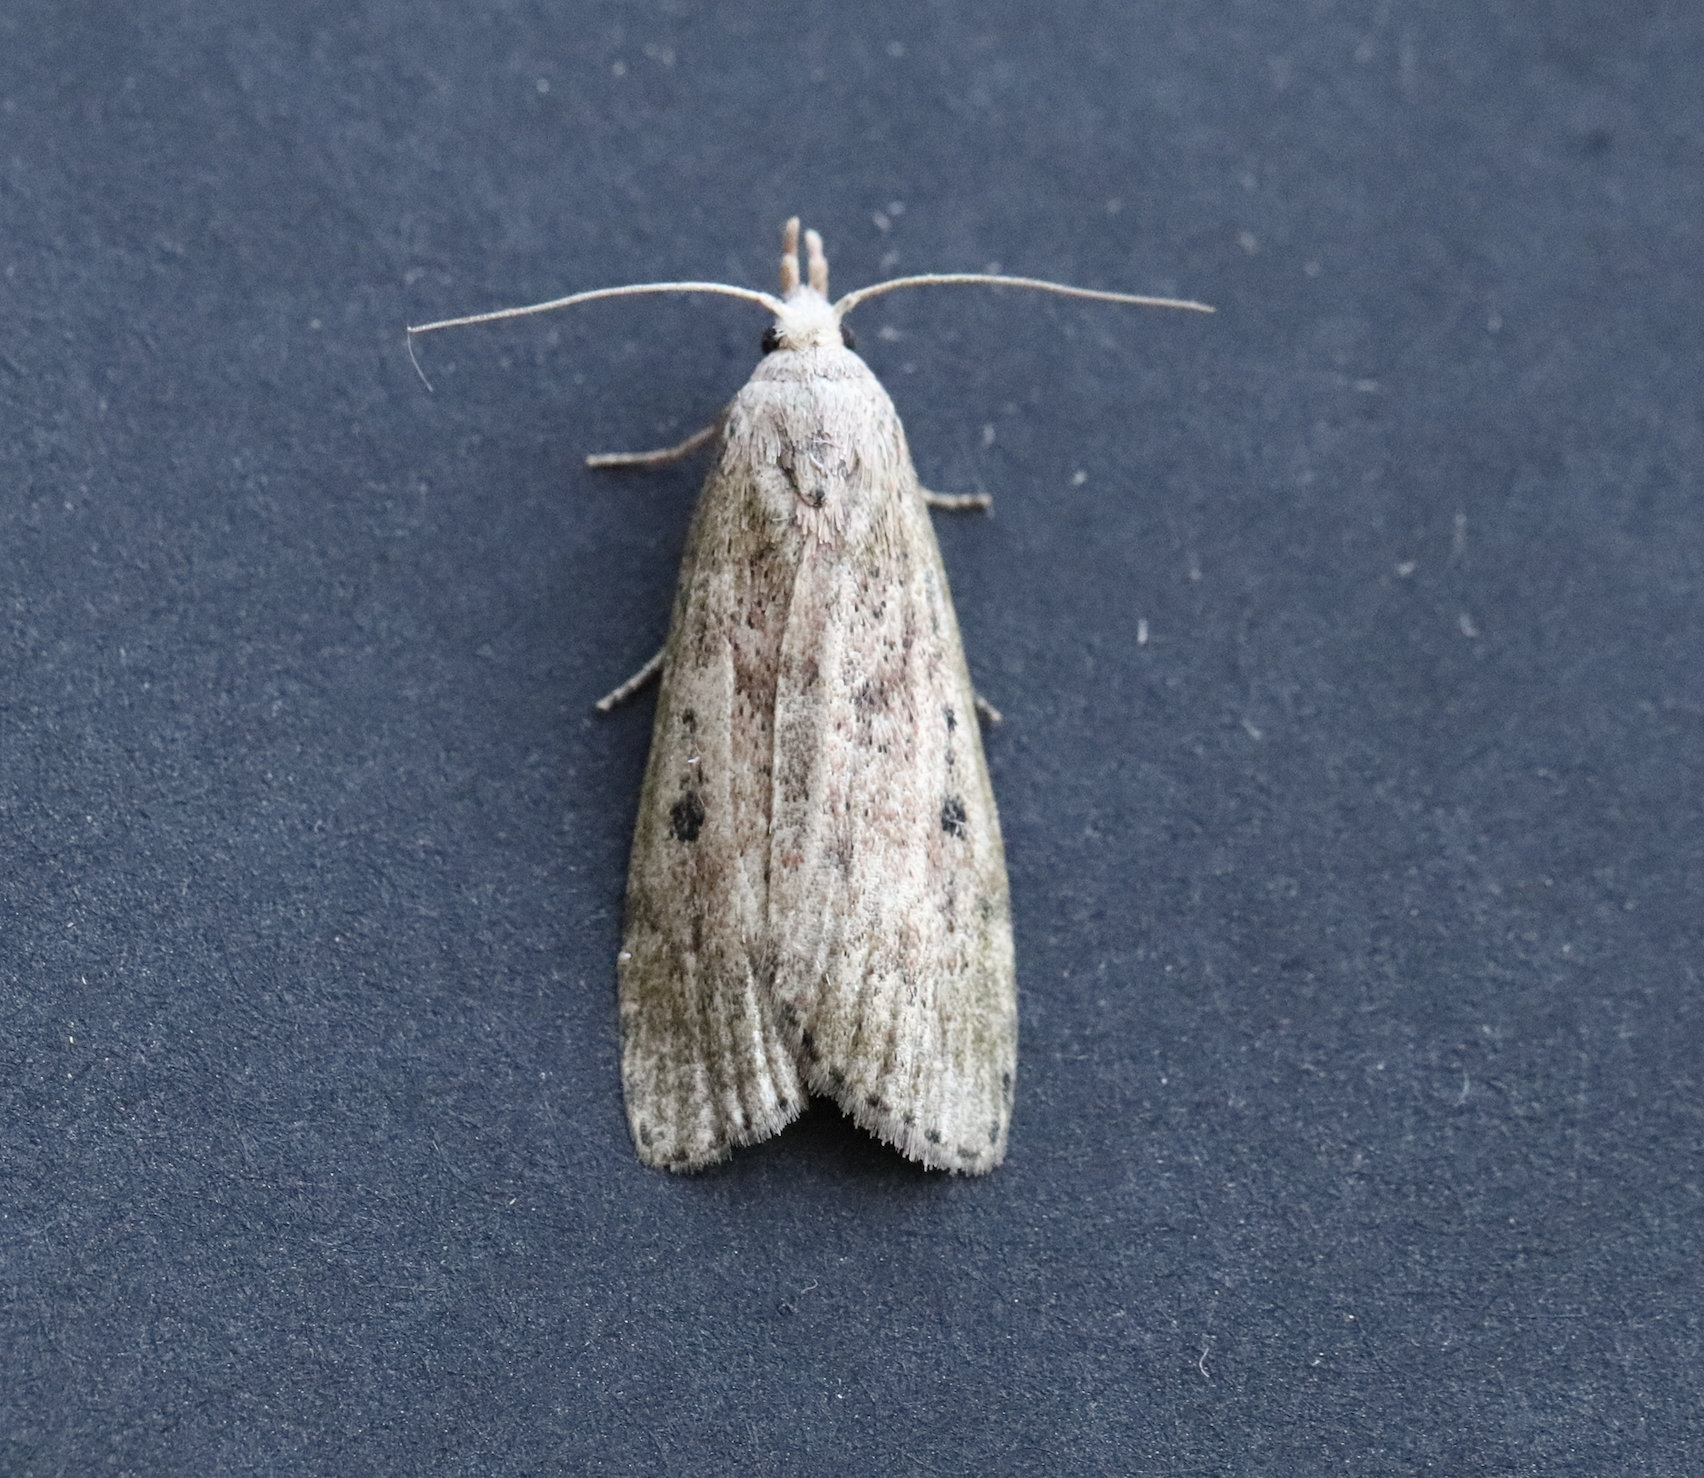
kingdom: Animalia
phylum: Arthropoda
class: Insecta
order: Lepidoptera
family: Pyralidae
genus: Aphomia
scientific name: Aphomia sociella
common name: Bee moth
